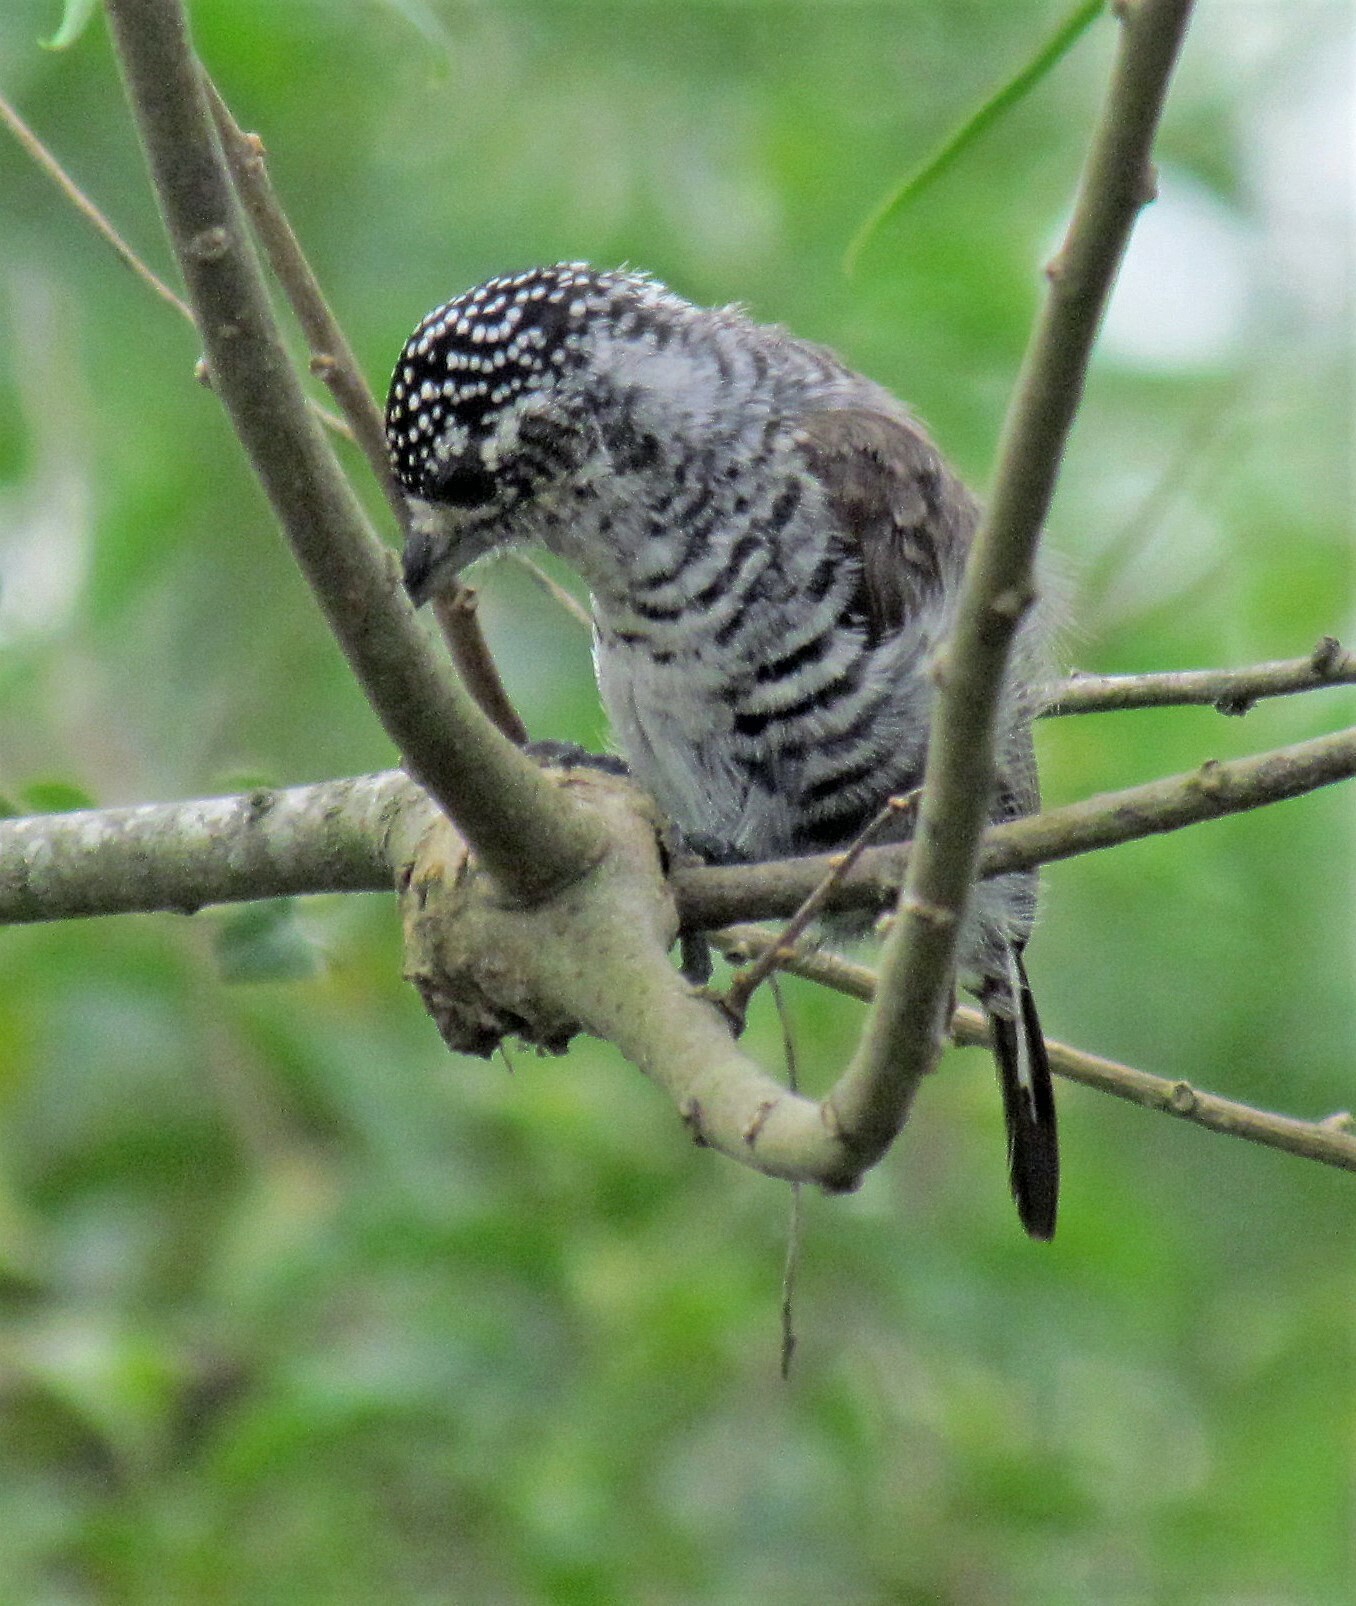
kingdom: Animalia
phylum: Chordata
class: Aves
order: Piciformes
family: Picidae
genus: Picumnus
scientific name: Picumnus cirratus
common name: White-barred piculet
